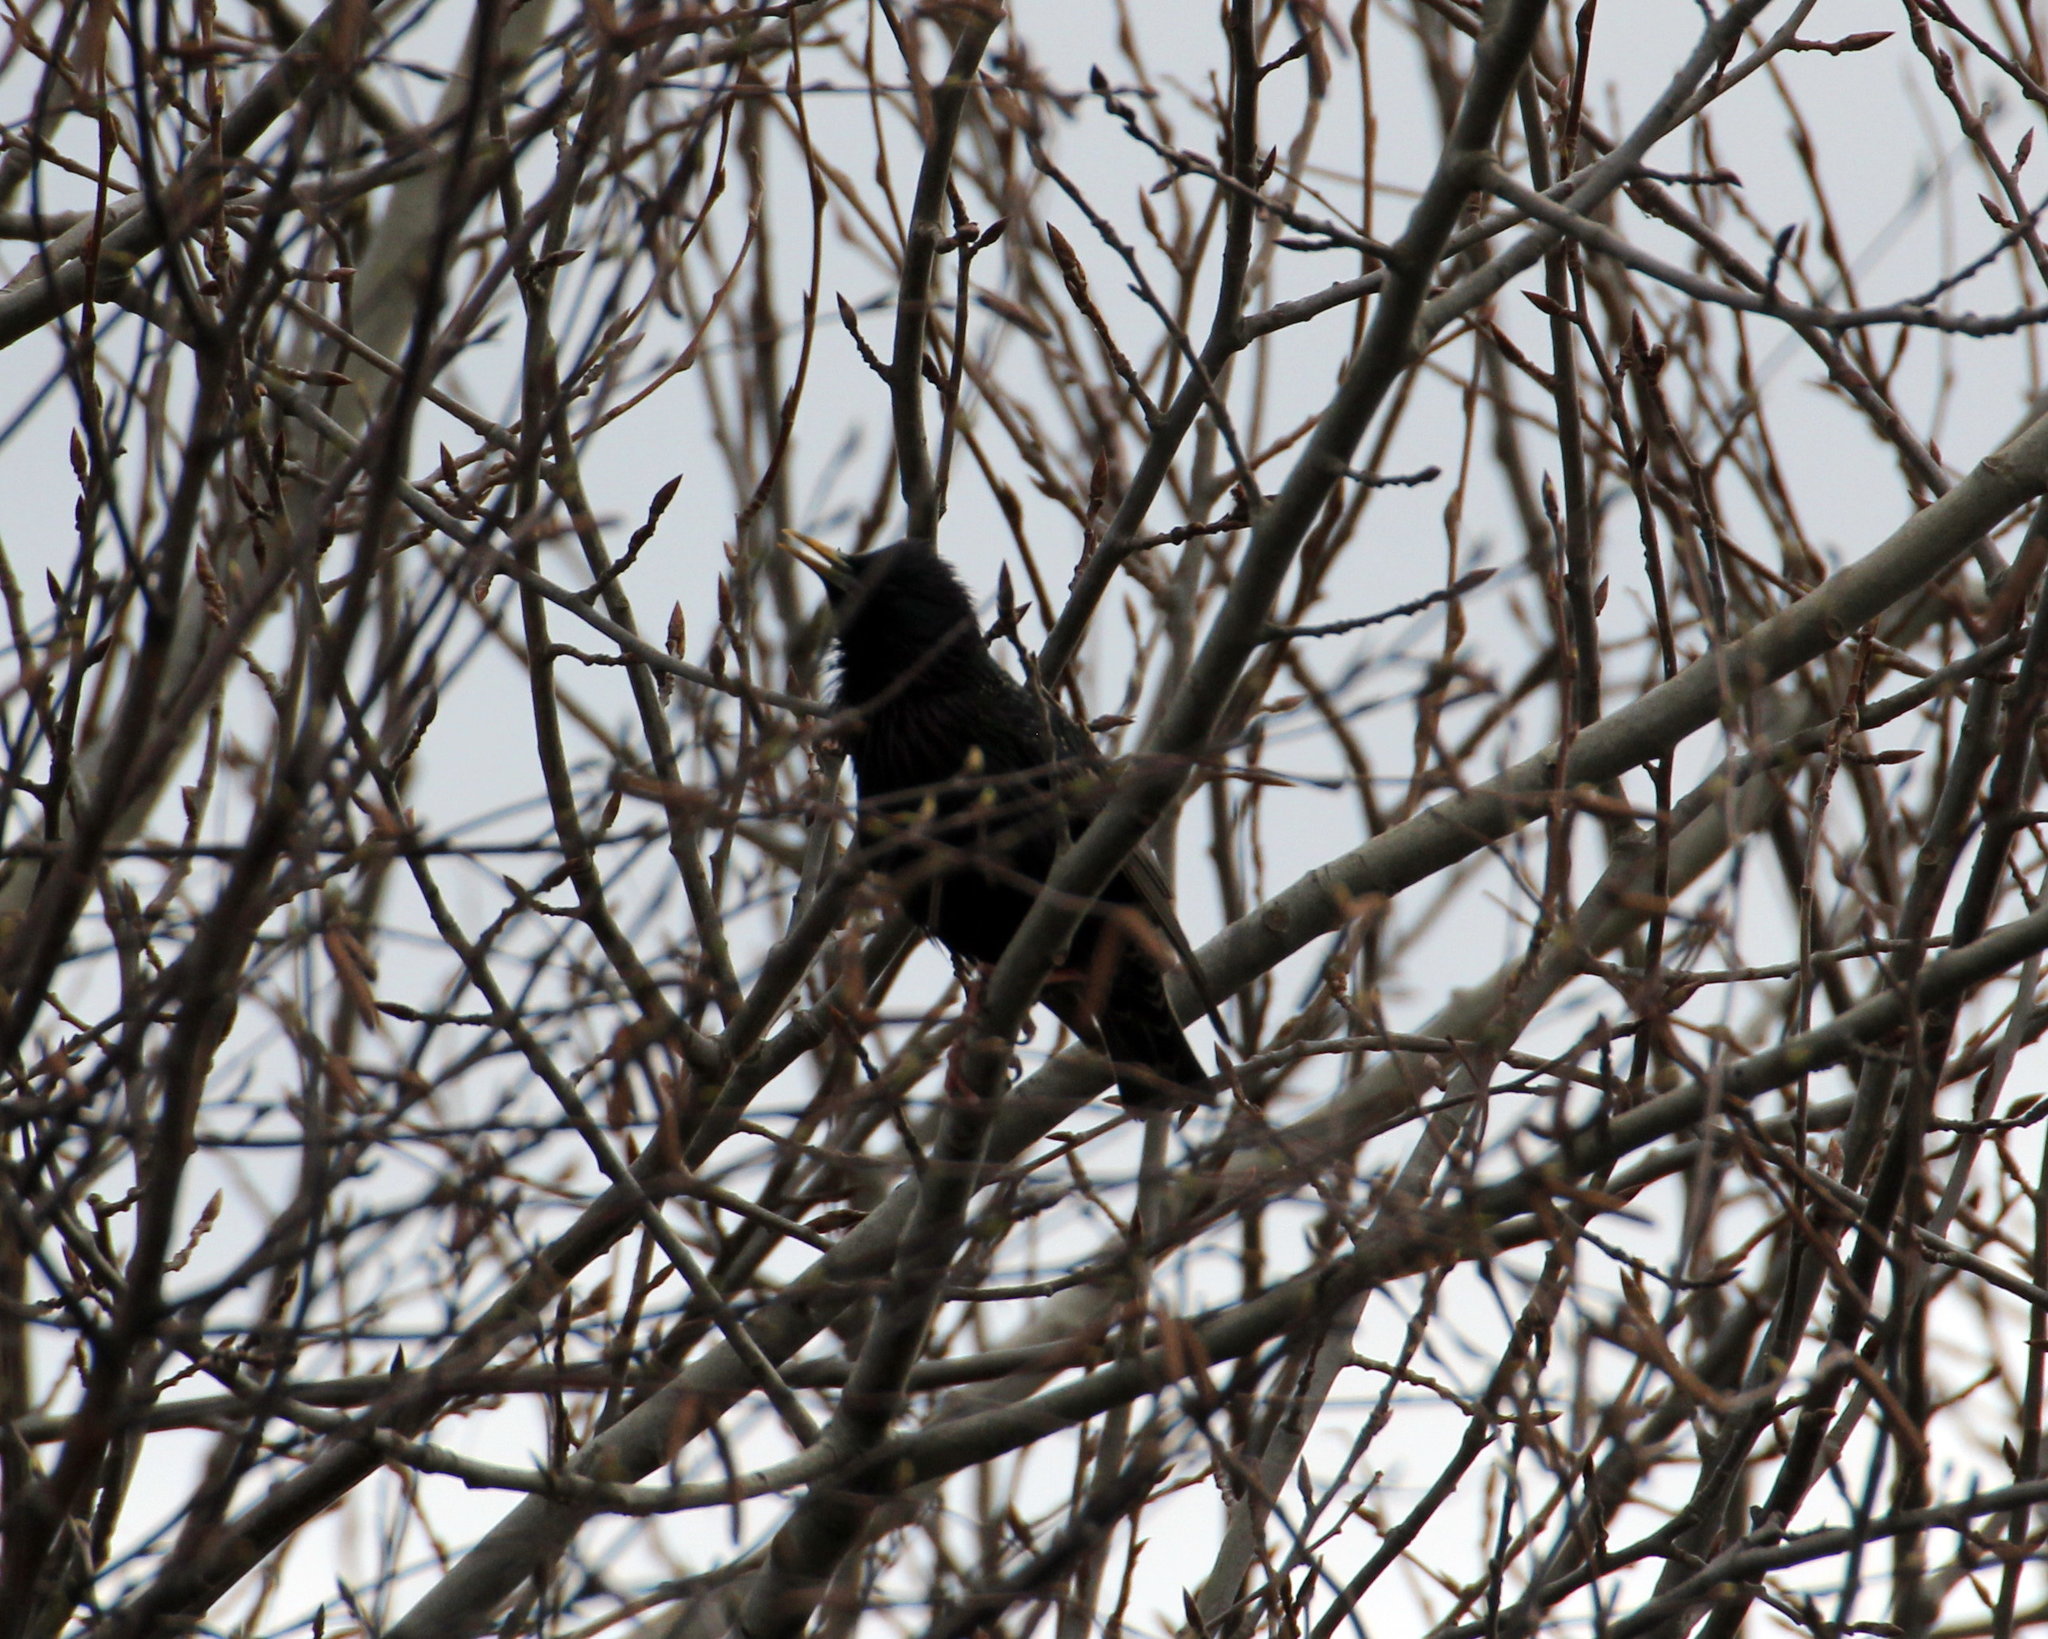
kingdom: Animalia
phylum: Chordata
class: Aves
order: Passeriformes
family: Sturnidae
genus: Sturnus
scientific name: Sturnus vulgaris
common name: Common starling
